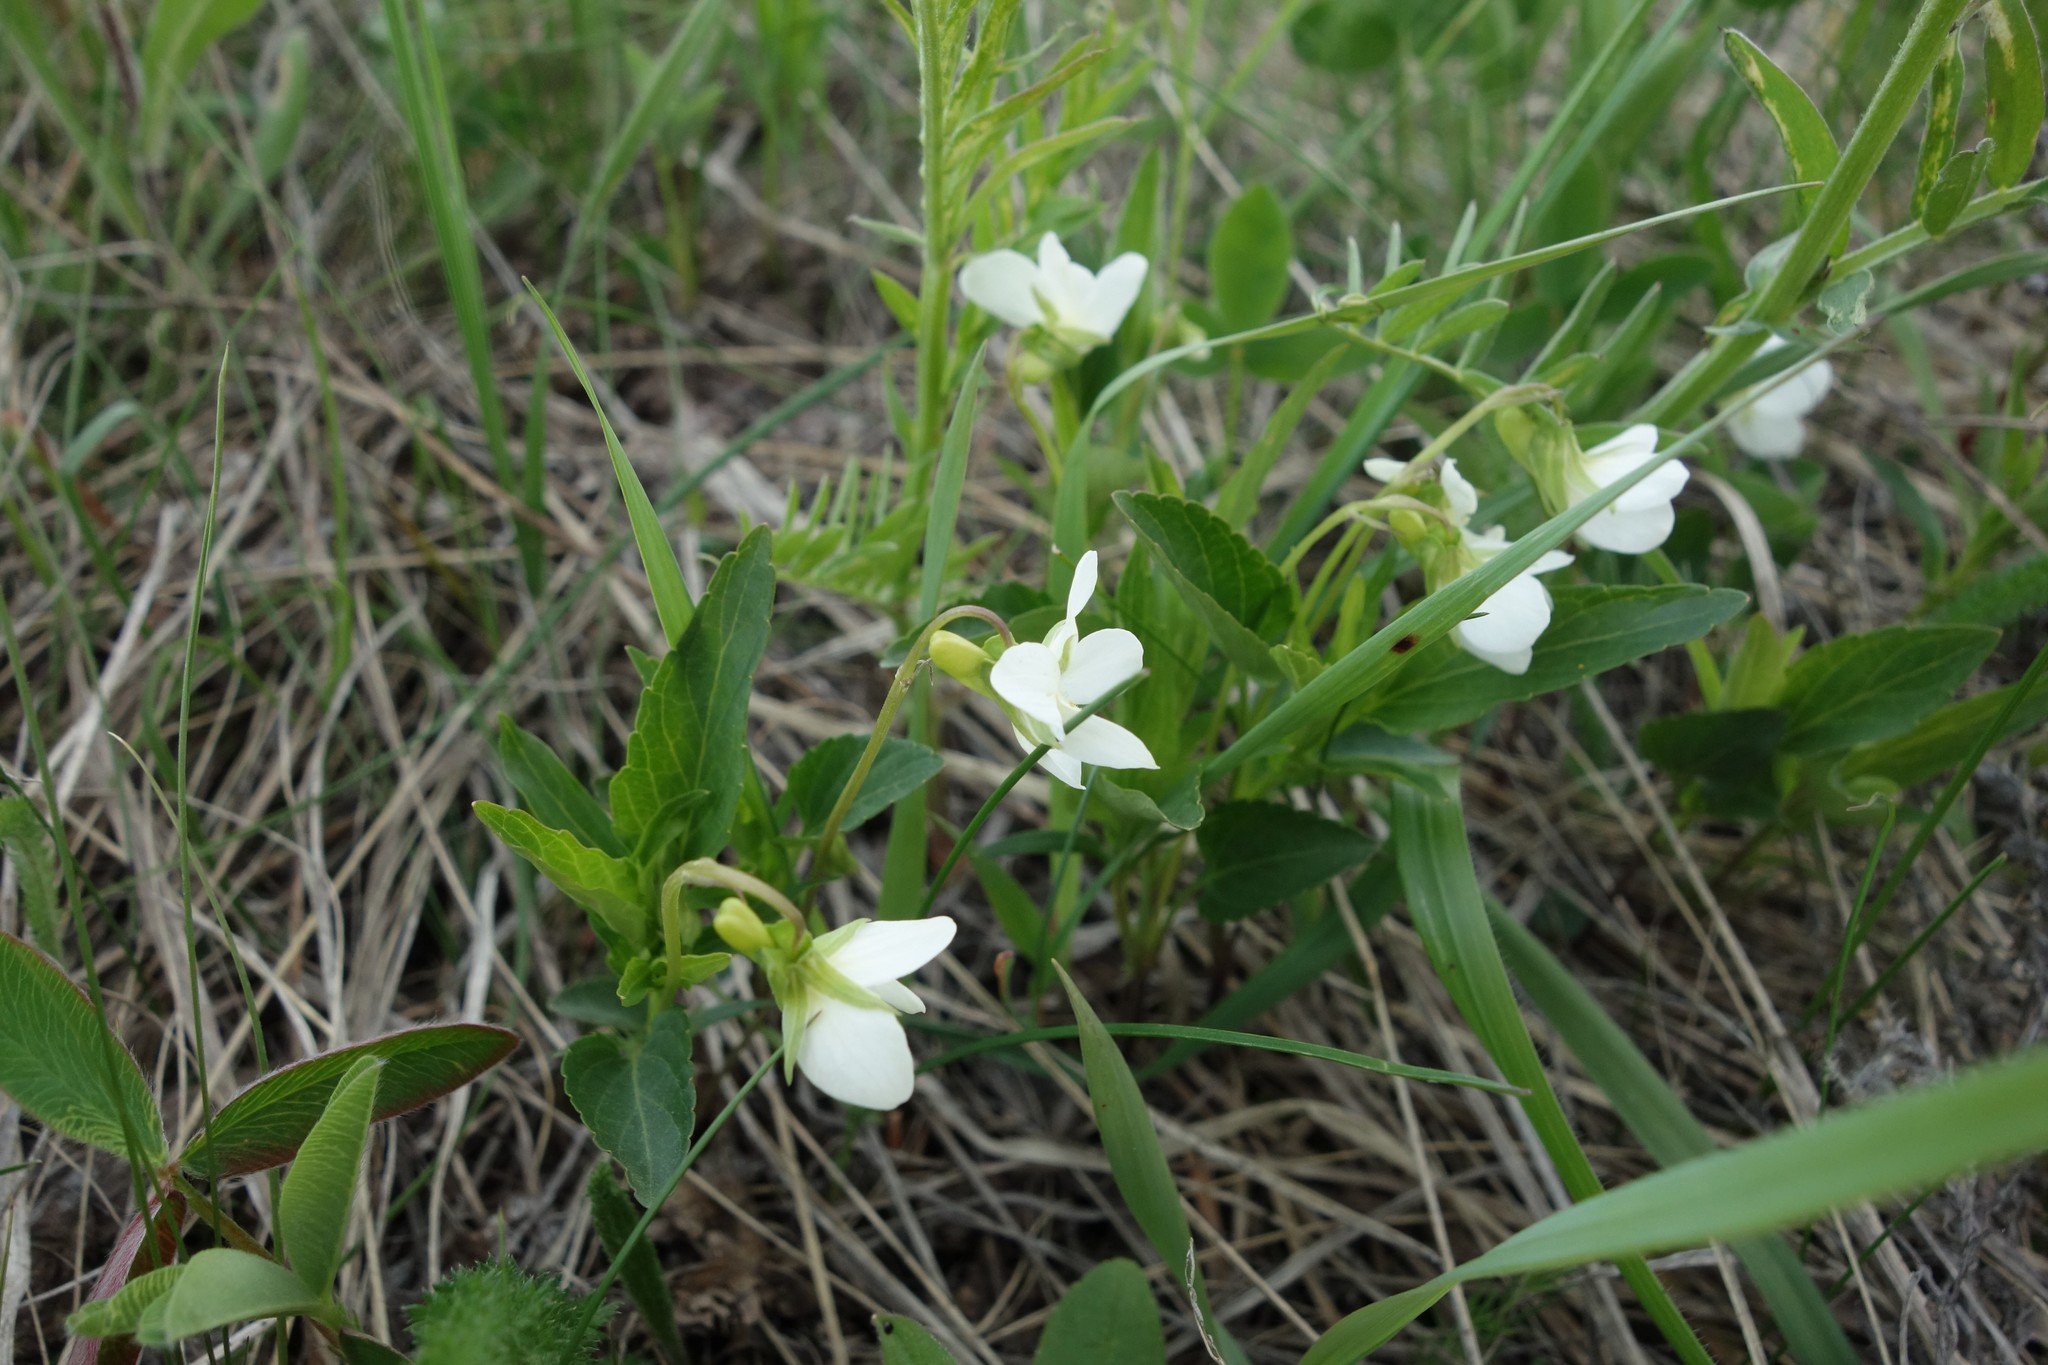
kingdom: Plantae
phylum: Tracheophyta
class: Magnoliopsida
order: Malpighiales
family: Violaceae
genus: Viola
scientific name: Viola pumila
